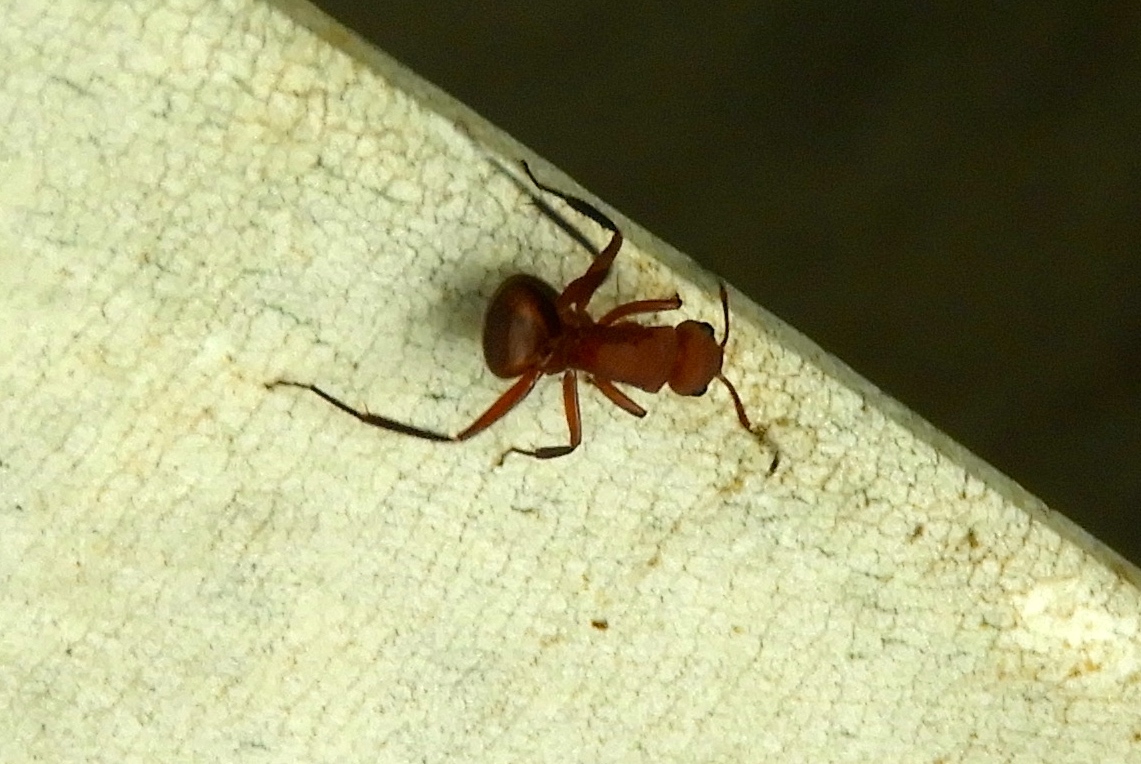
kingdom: Animalia
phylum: Arthropoda
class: Insecta
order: Hymenoptera
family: Formicidae
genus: Camponotus
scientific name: Camponotus rectangularis
